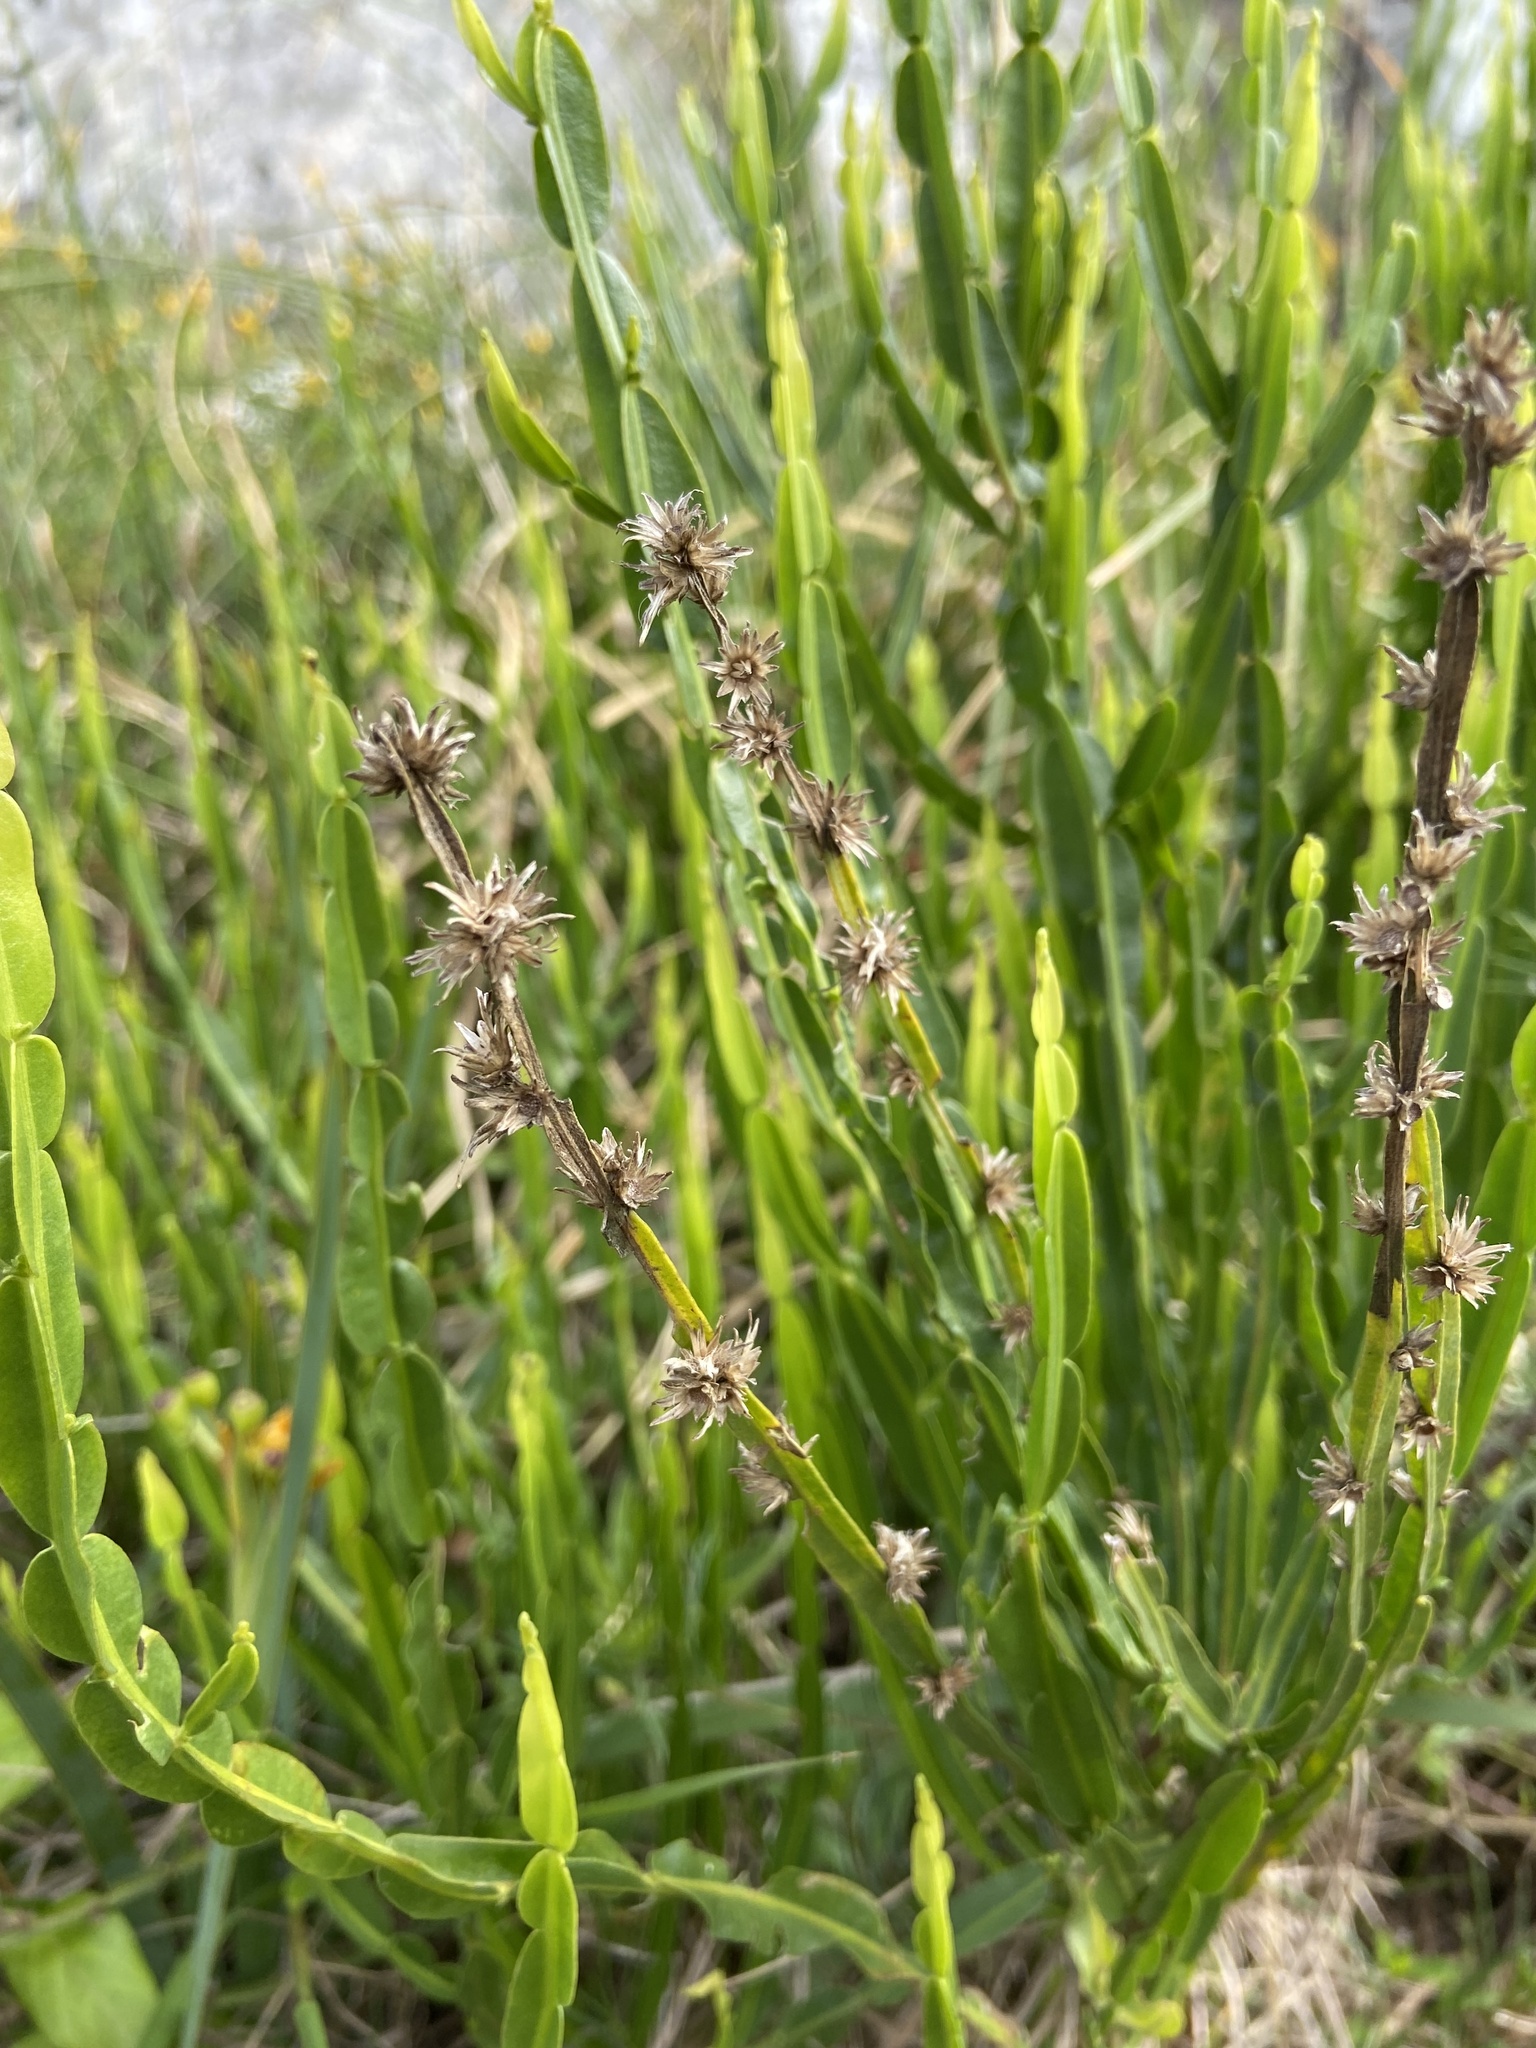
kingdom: Plantae
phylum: Tracheophyta
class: Magnoliopsida
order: Asterales
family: Asteraceae
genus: Baccharis
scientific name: Baccharis trimera
